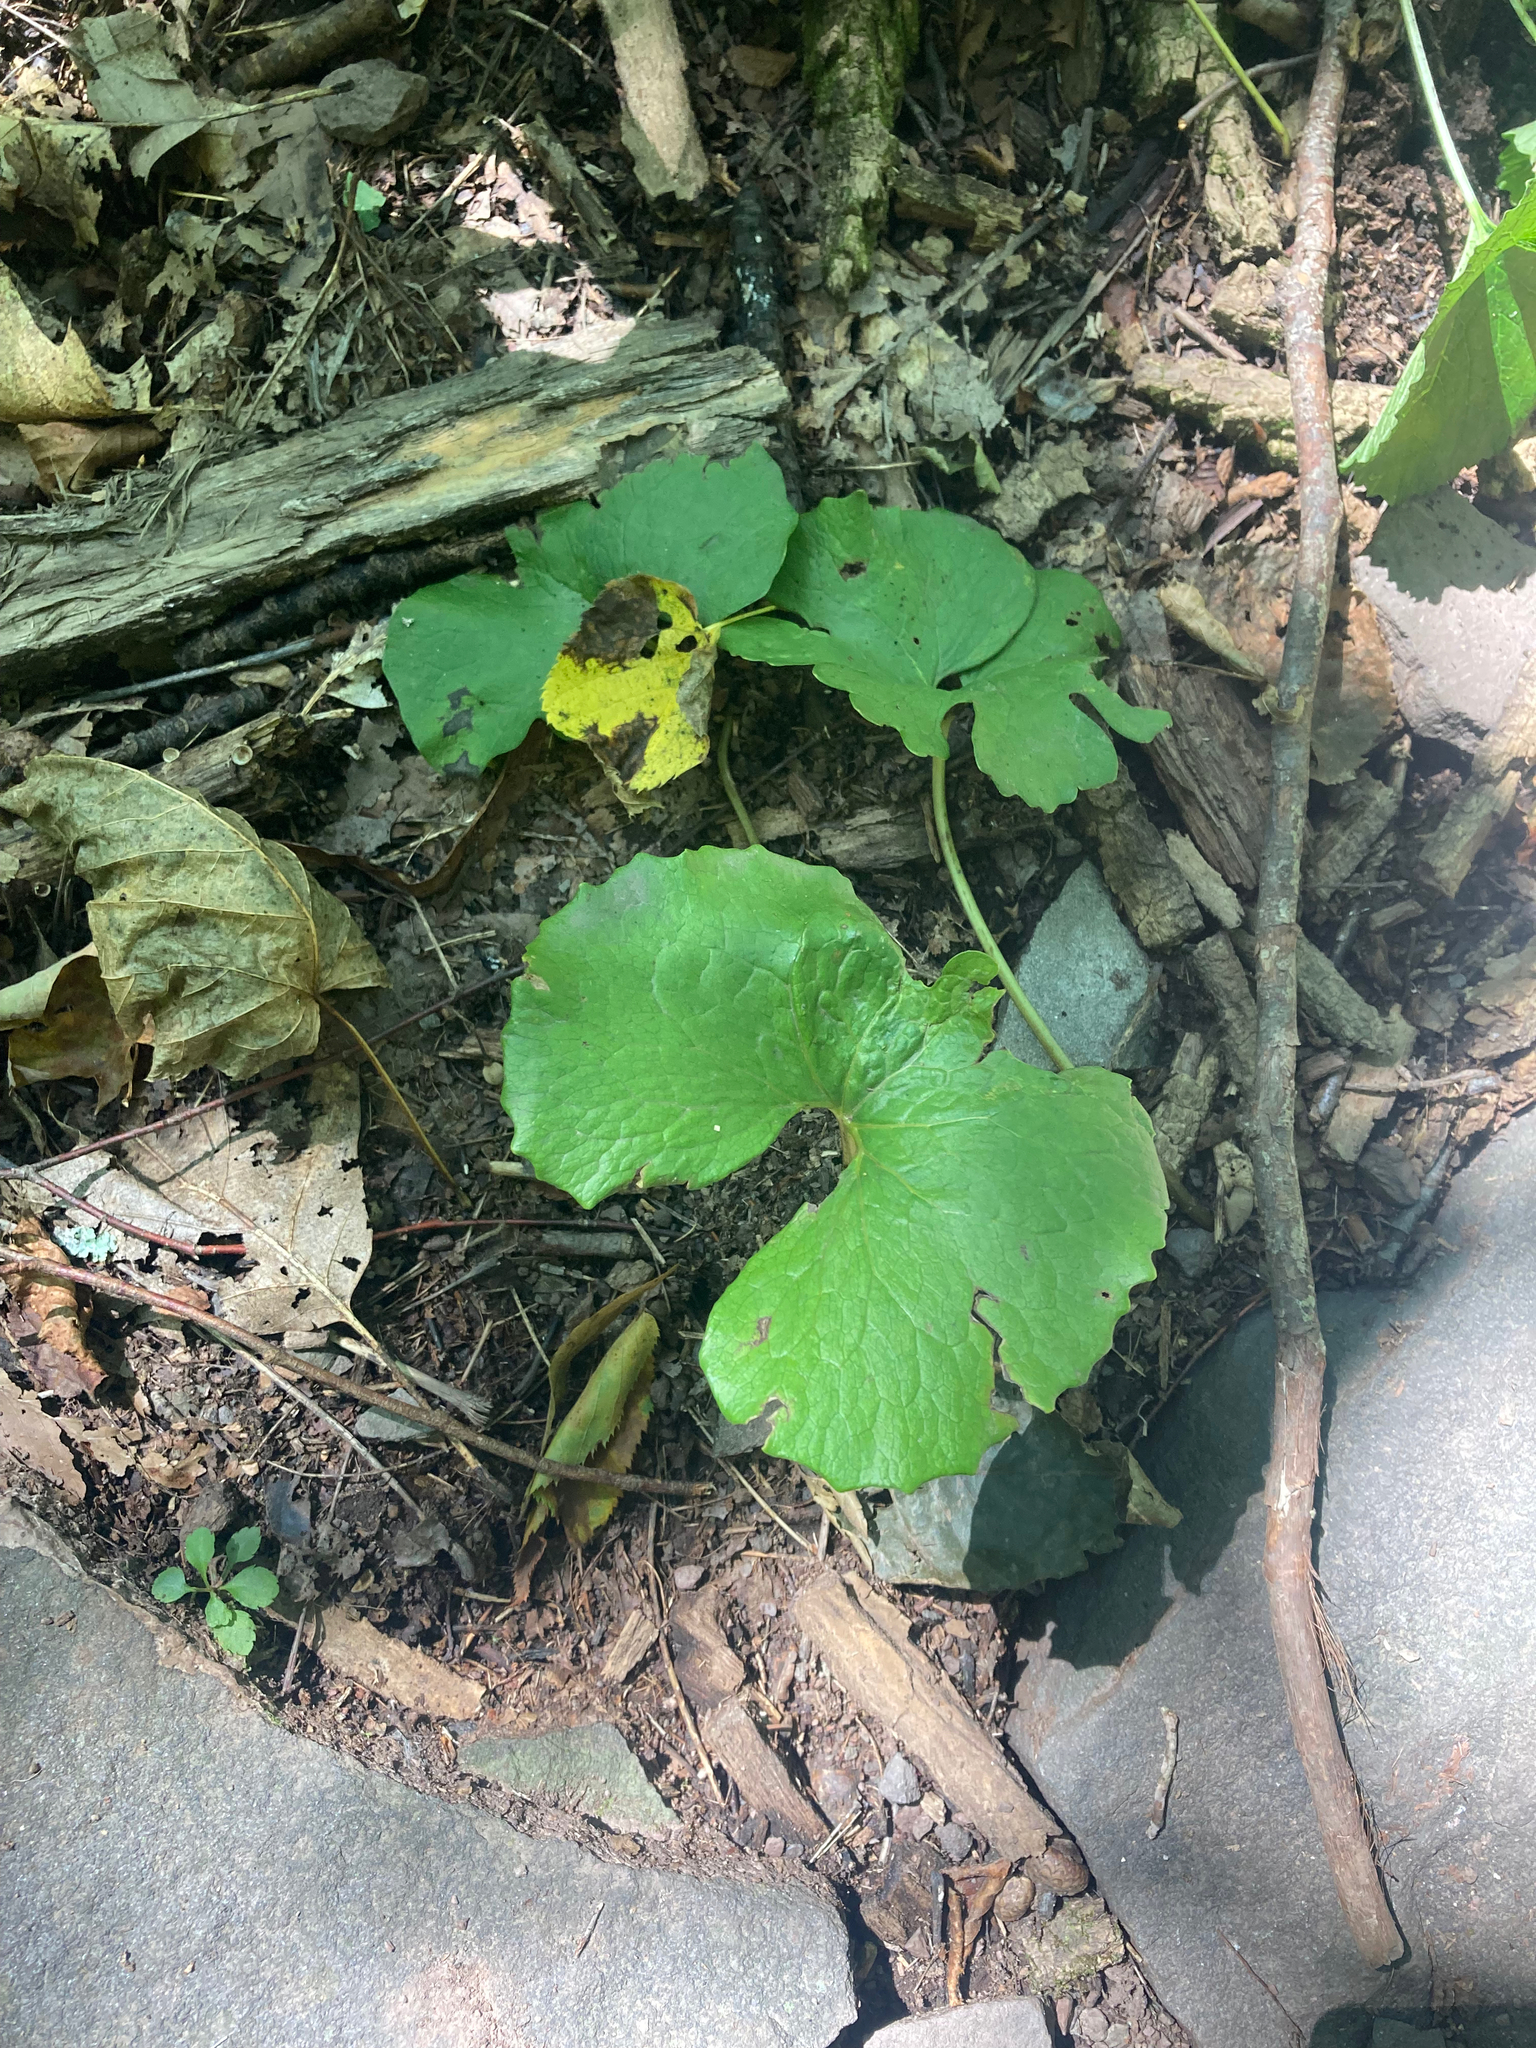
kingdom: Plantae
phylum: Tracheophyta
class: Magnoliopsida
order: Ranunculales
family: Papaveraceae
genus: Sanguinaria
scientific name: Sanguinaria canadensis
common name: Bloodroot
